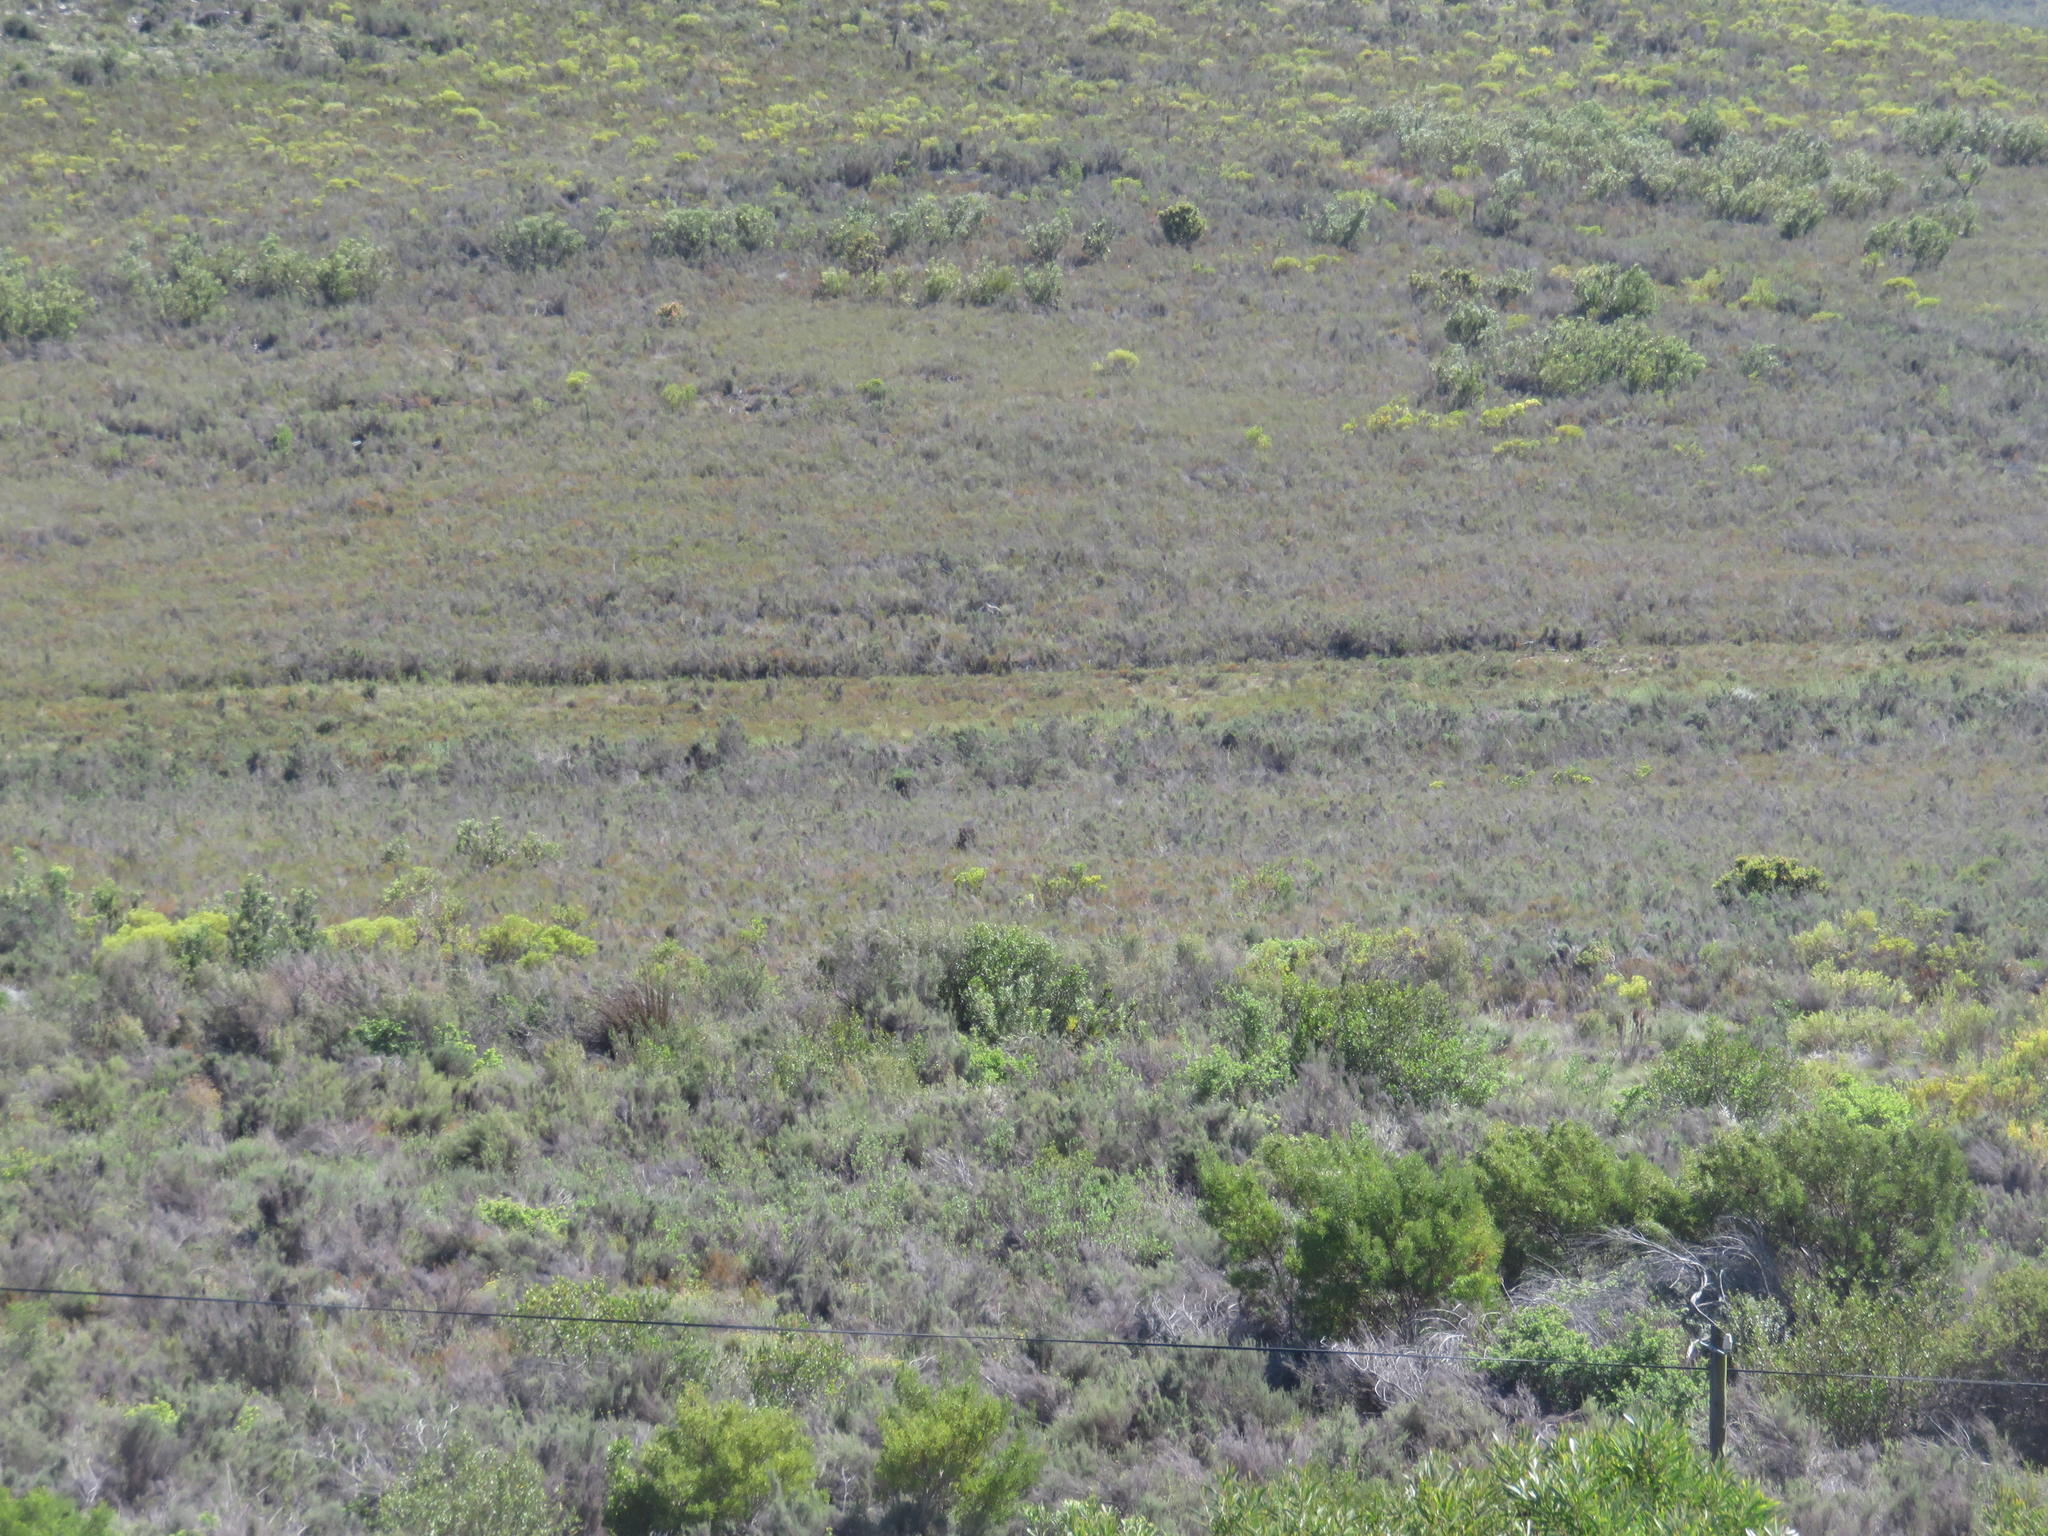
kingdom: Animalia
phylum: Chordata
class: Mammalia
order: Artiodactyla
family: Bovidae
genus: Pelea
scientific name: Pelea capreolus
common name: Common rhebok
